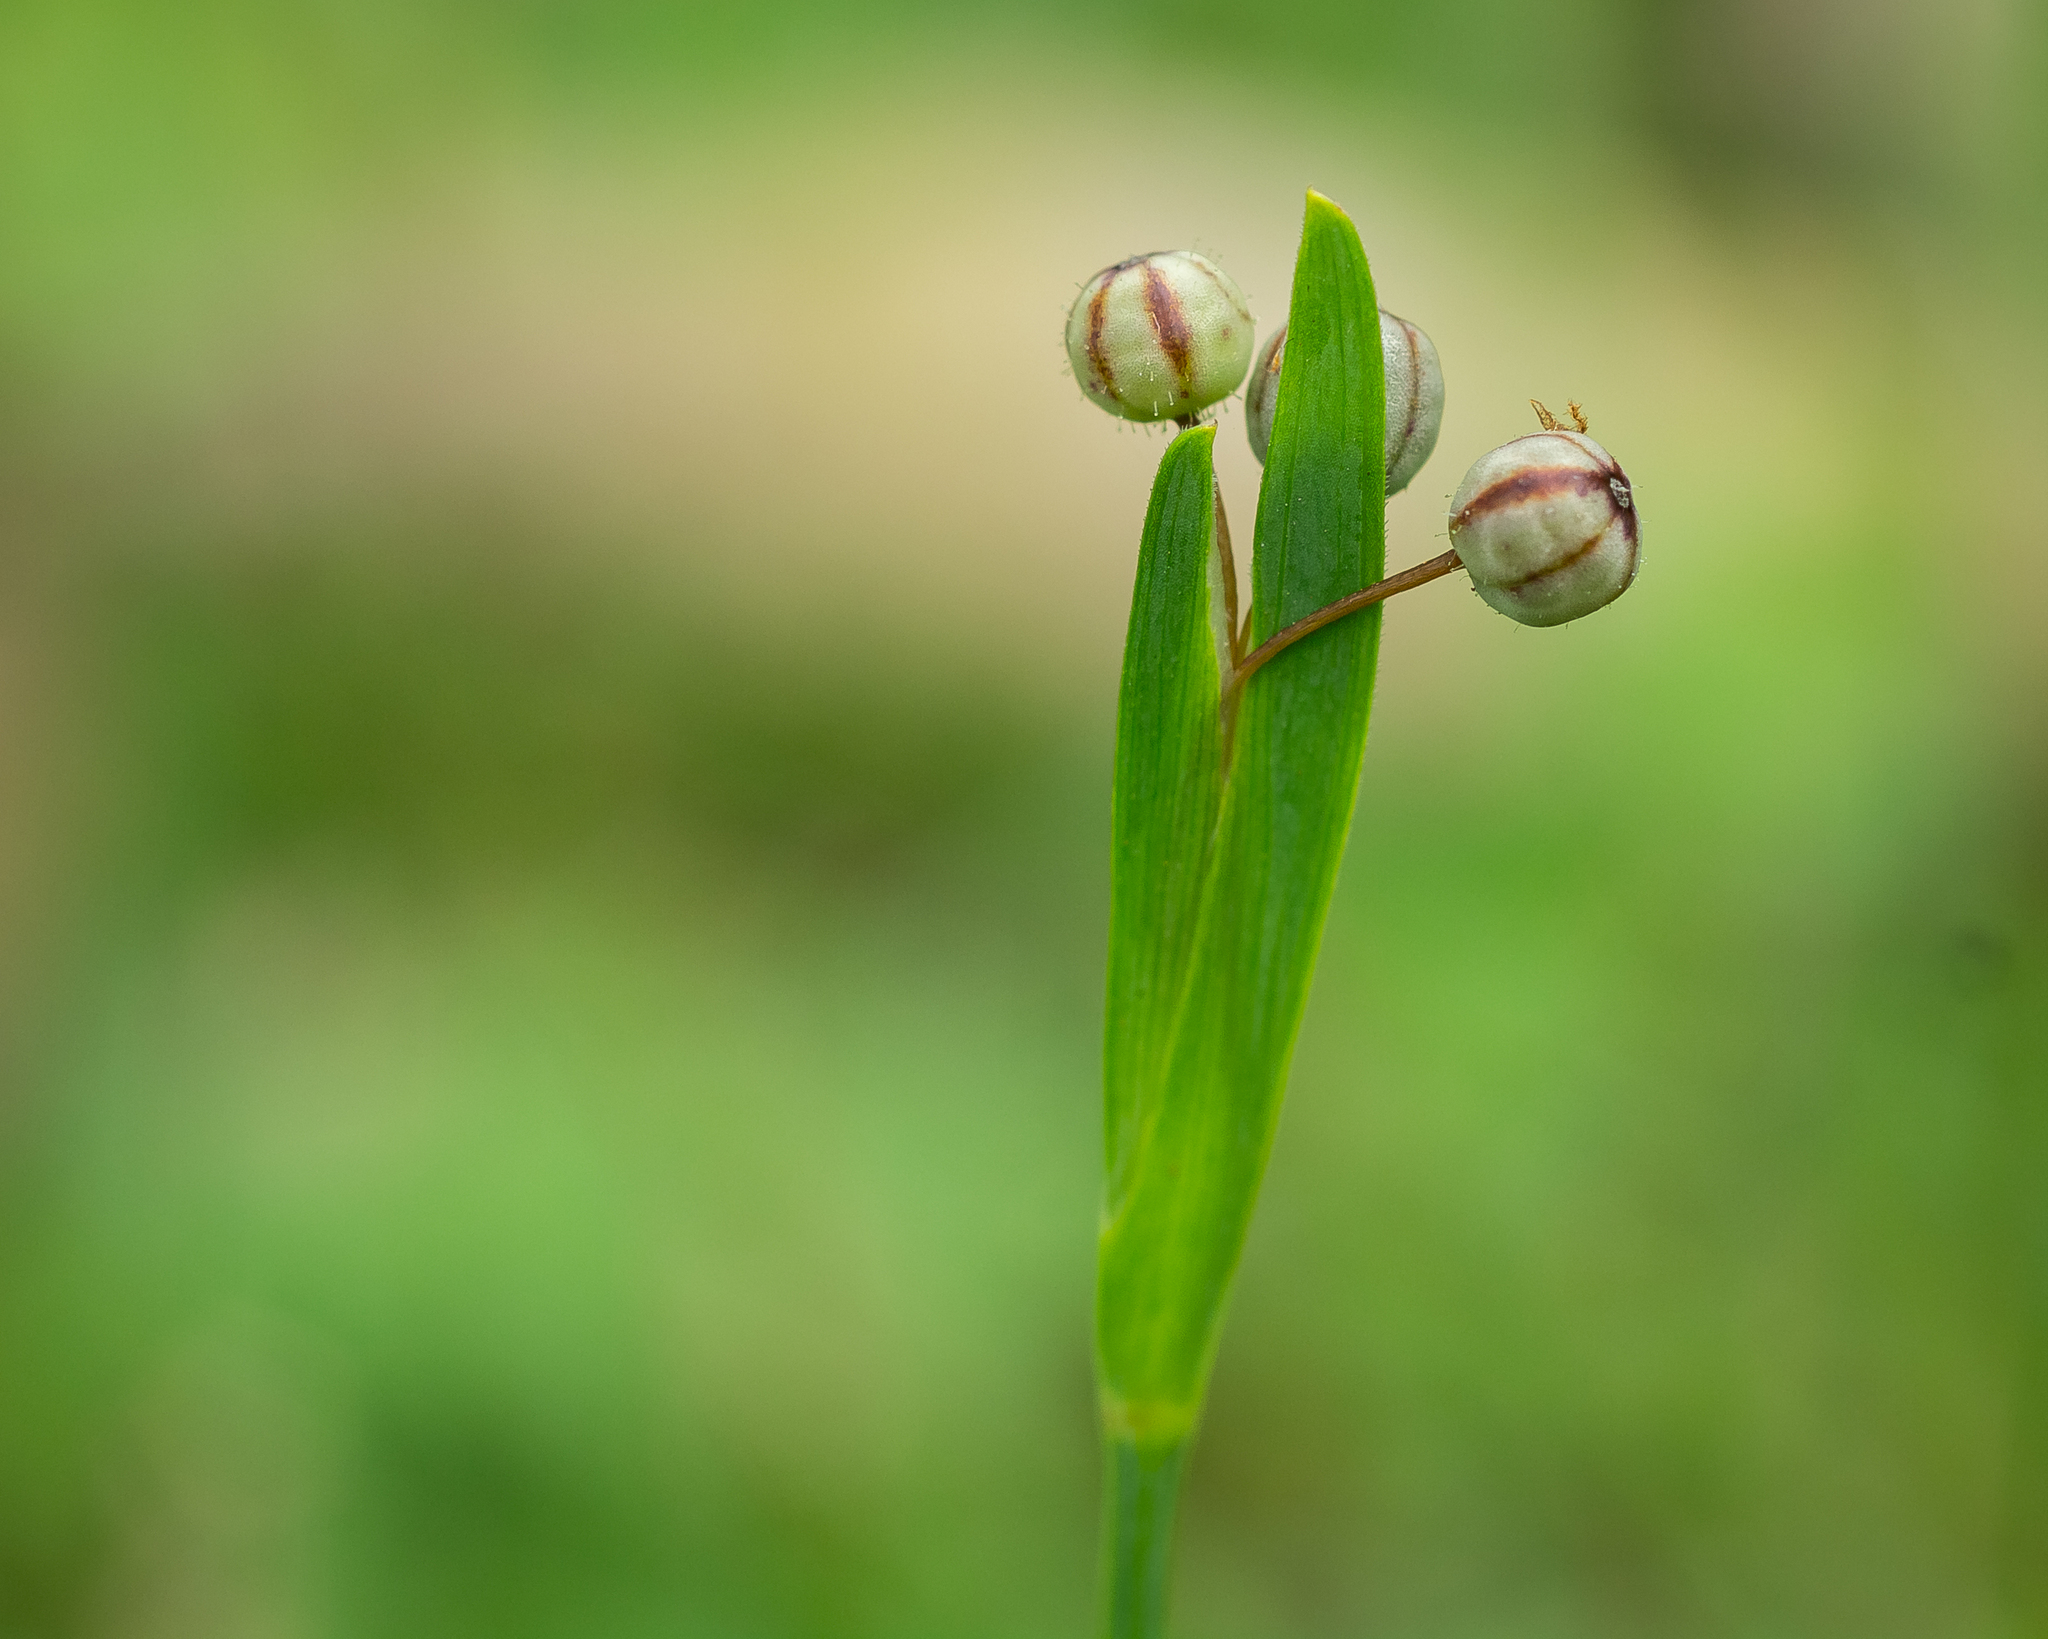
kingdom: Plantae
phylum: Tracheophyta
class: Liliopsida
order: Asparagales
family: Iridaceae
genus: Sisyrinchium
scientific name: Sisyrinchium micranthum
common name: Bermuda pigroot
